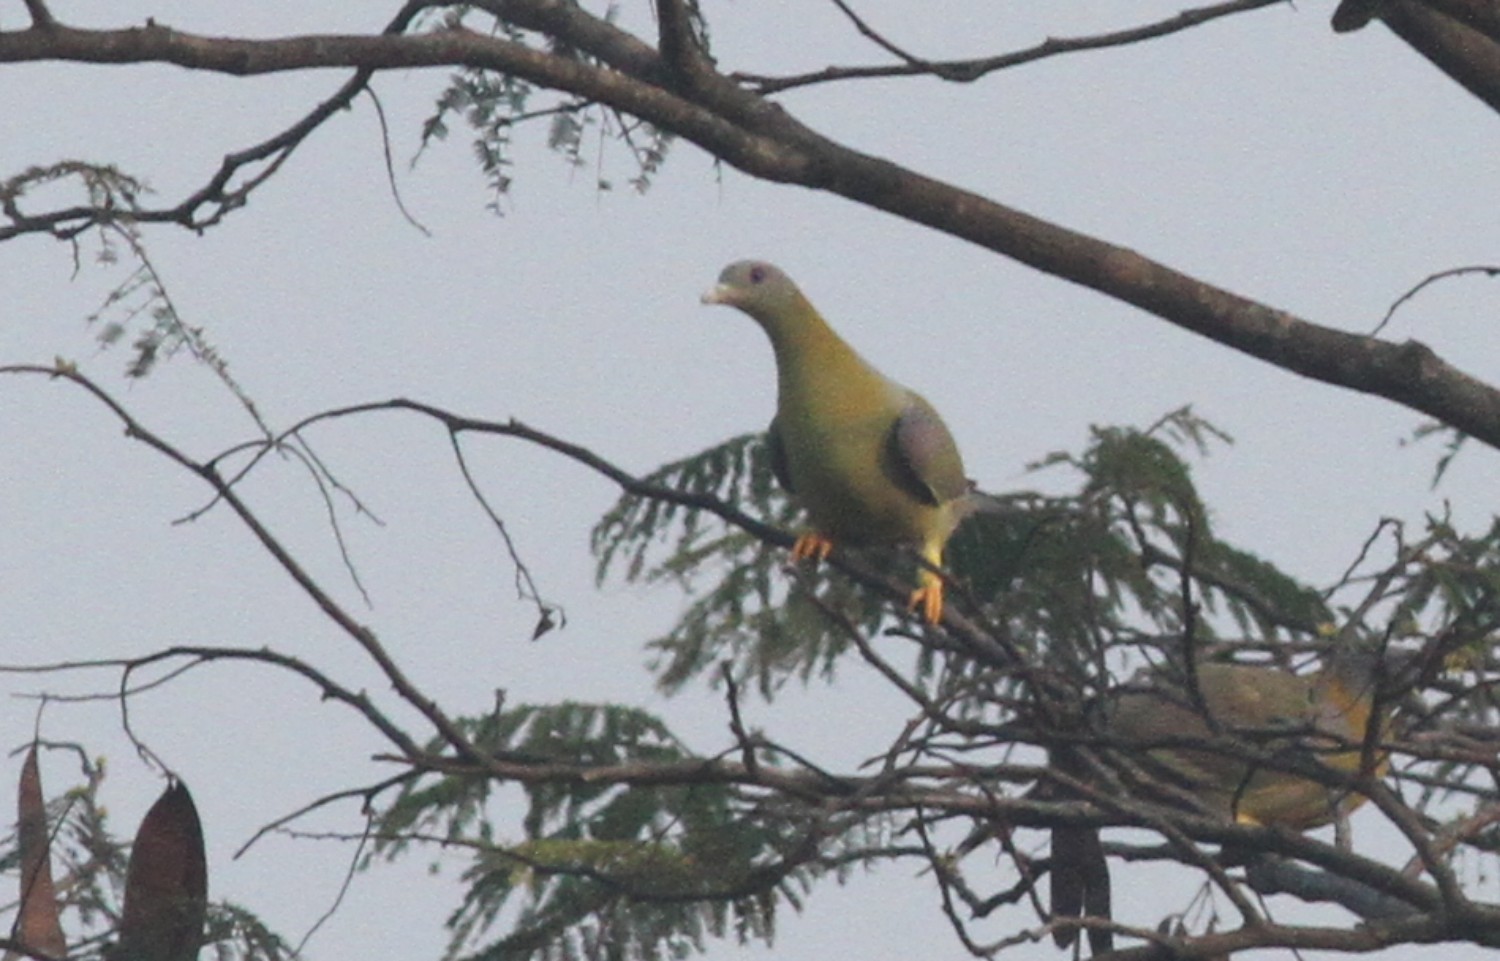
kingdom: Animalia
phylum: Chordata
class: Aves
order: Columbiformes
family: Columbidae
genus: Treron
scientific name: Treron phoenicopterus
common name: Yellow-footed green pigeon
